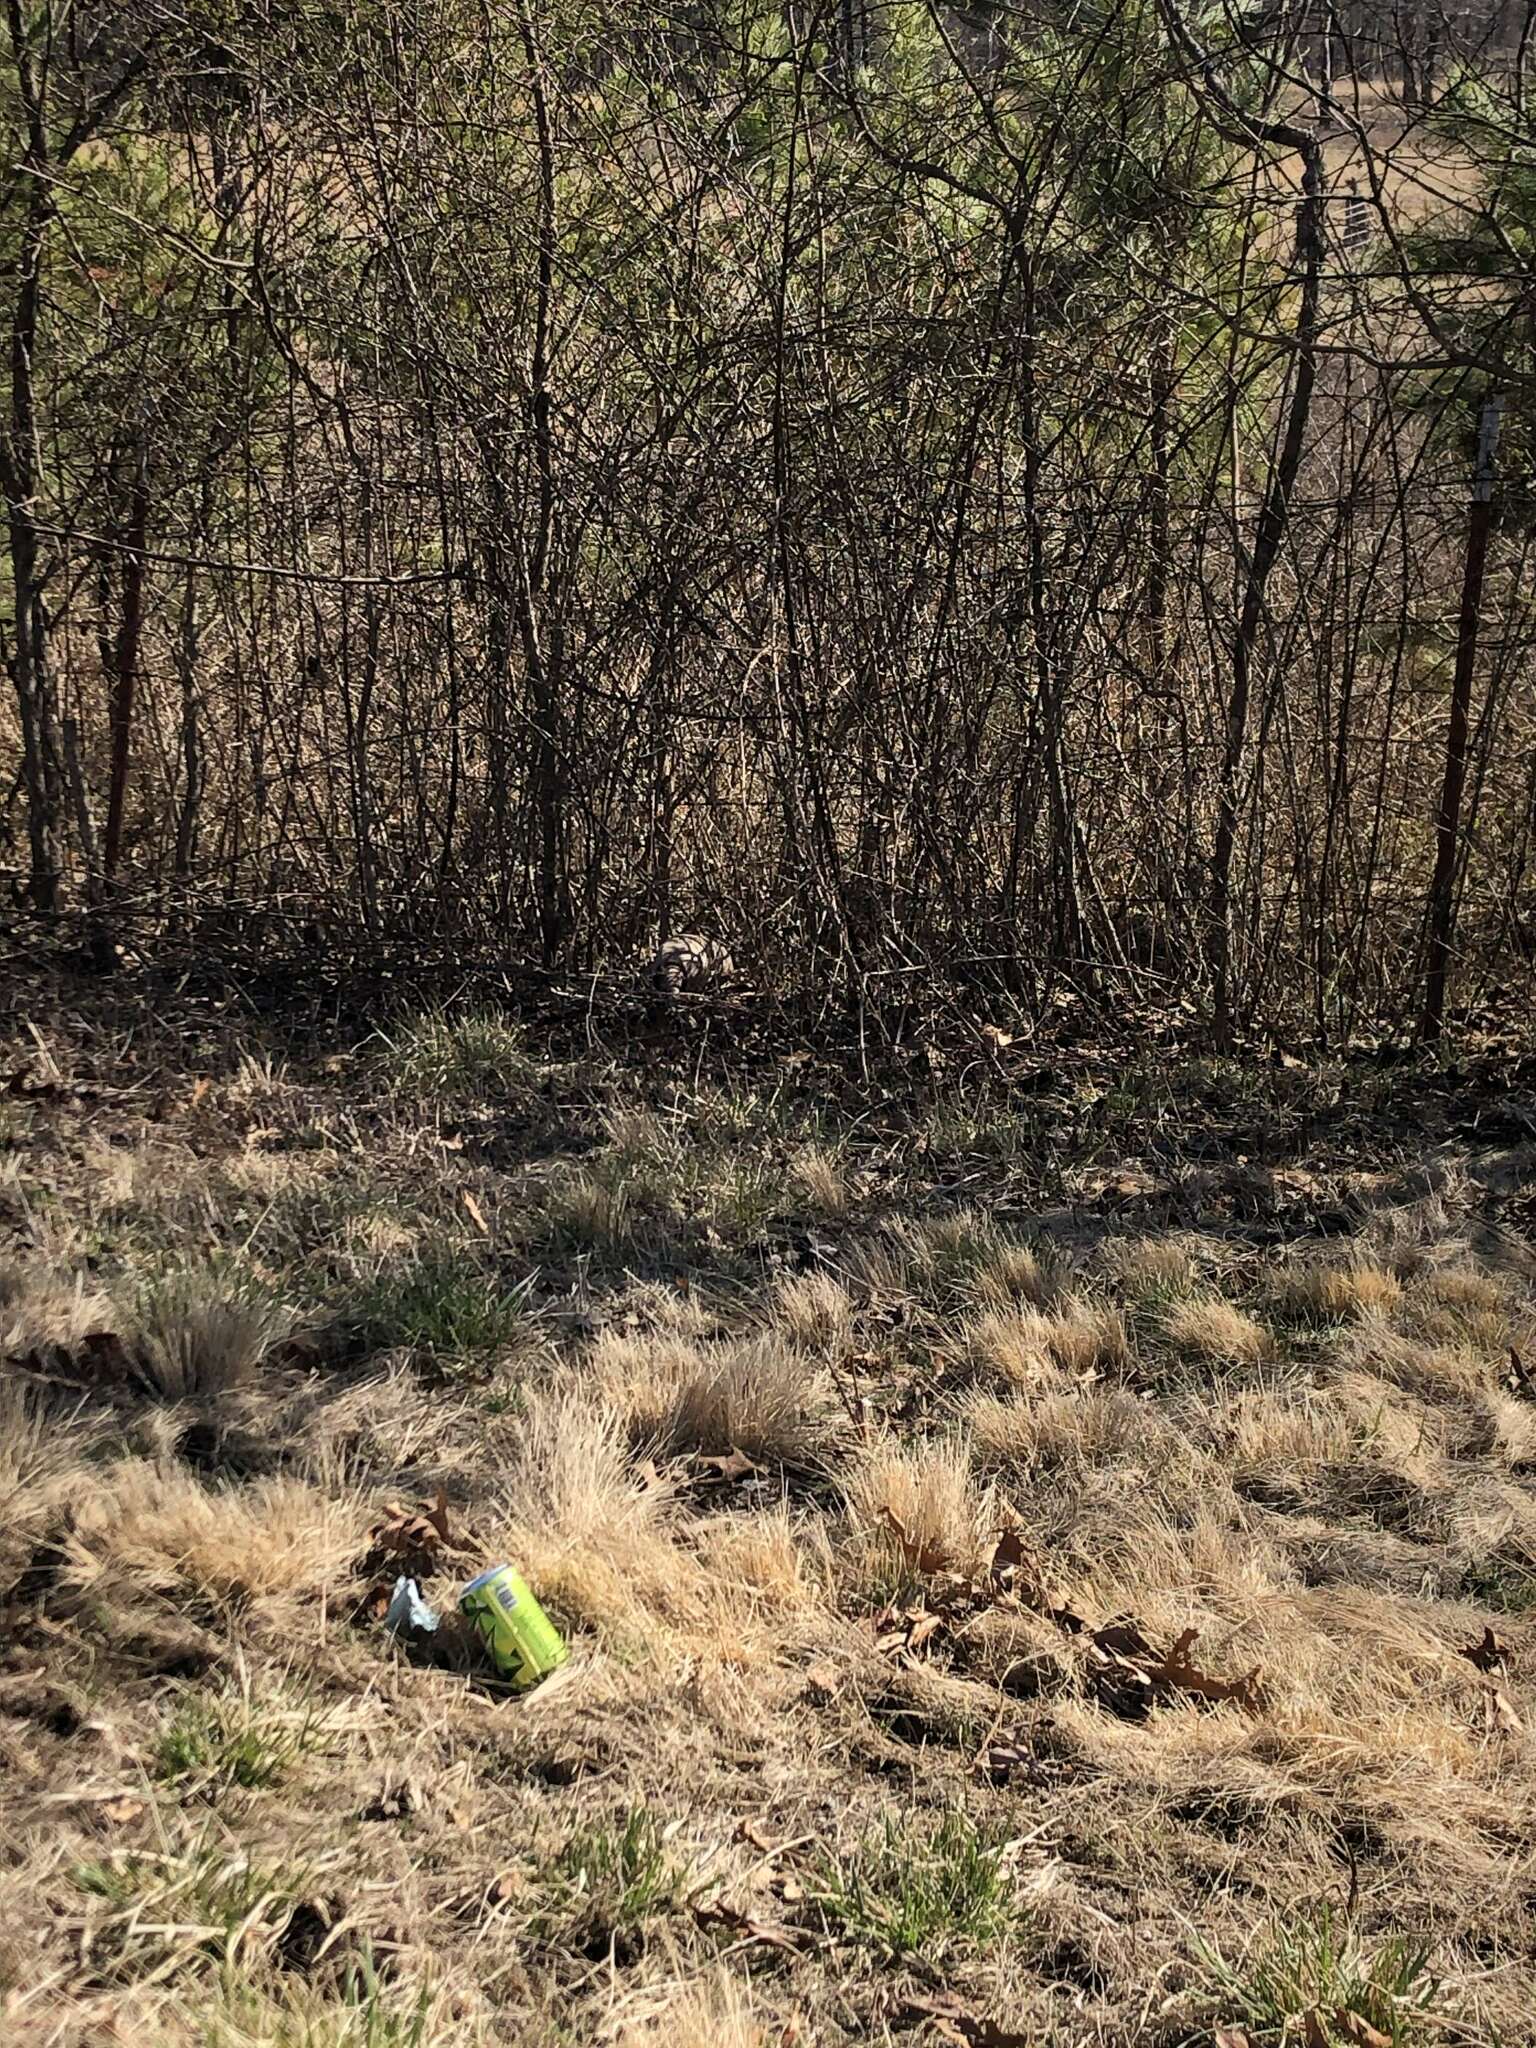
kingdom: Animalia
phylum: Chordata
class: Mammalia
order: Cingulata
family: Dasypodidae
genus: Dasypus
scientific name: Dasypus novemcinctus
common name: Nine-banded armadillo
